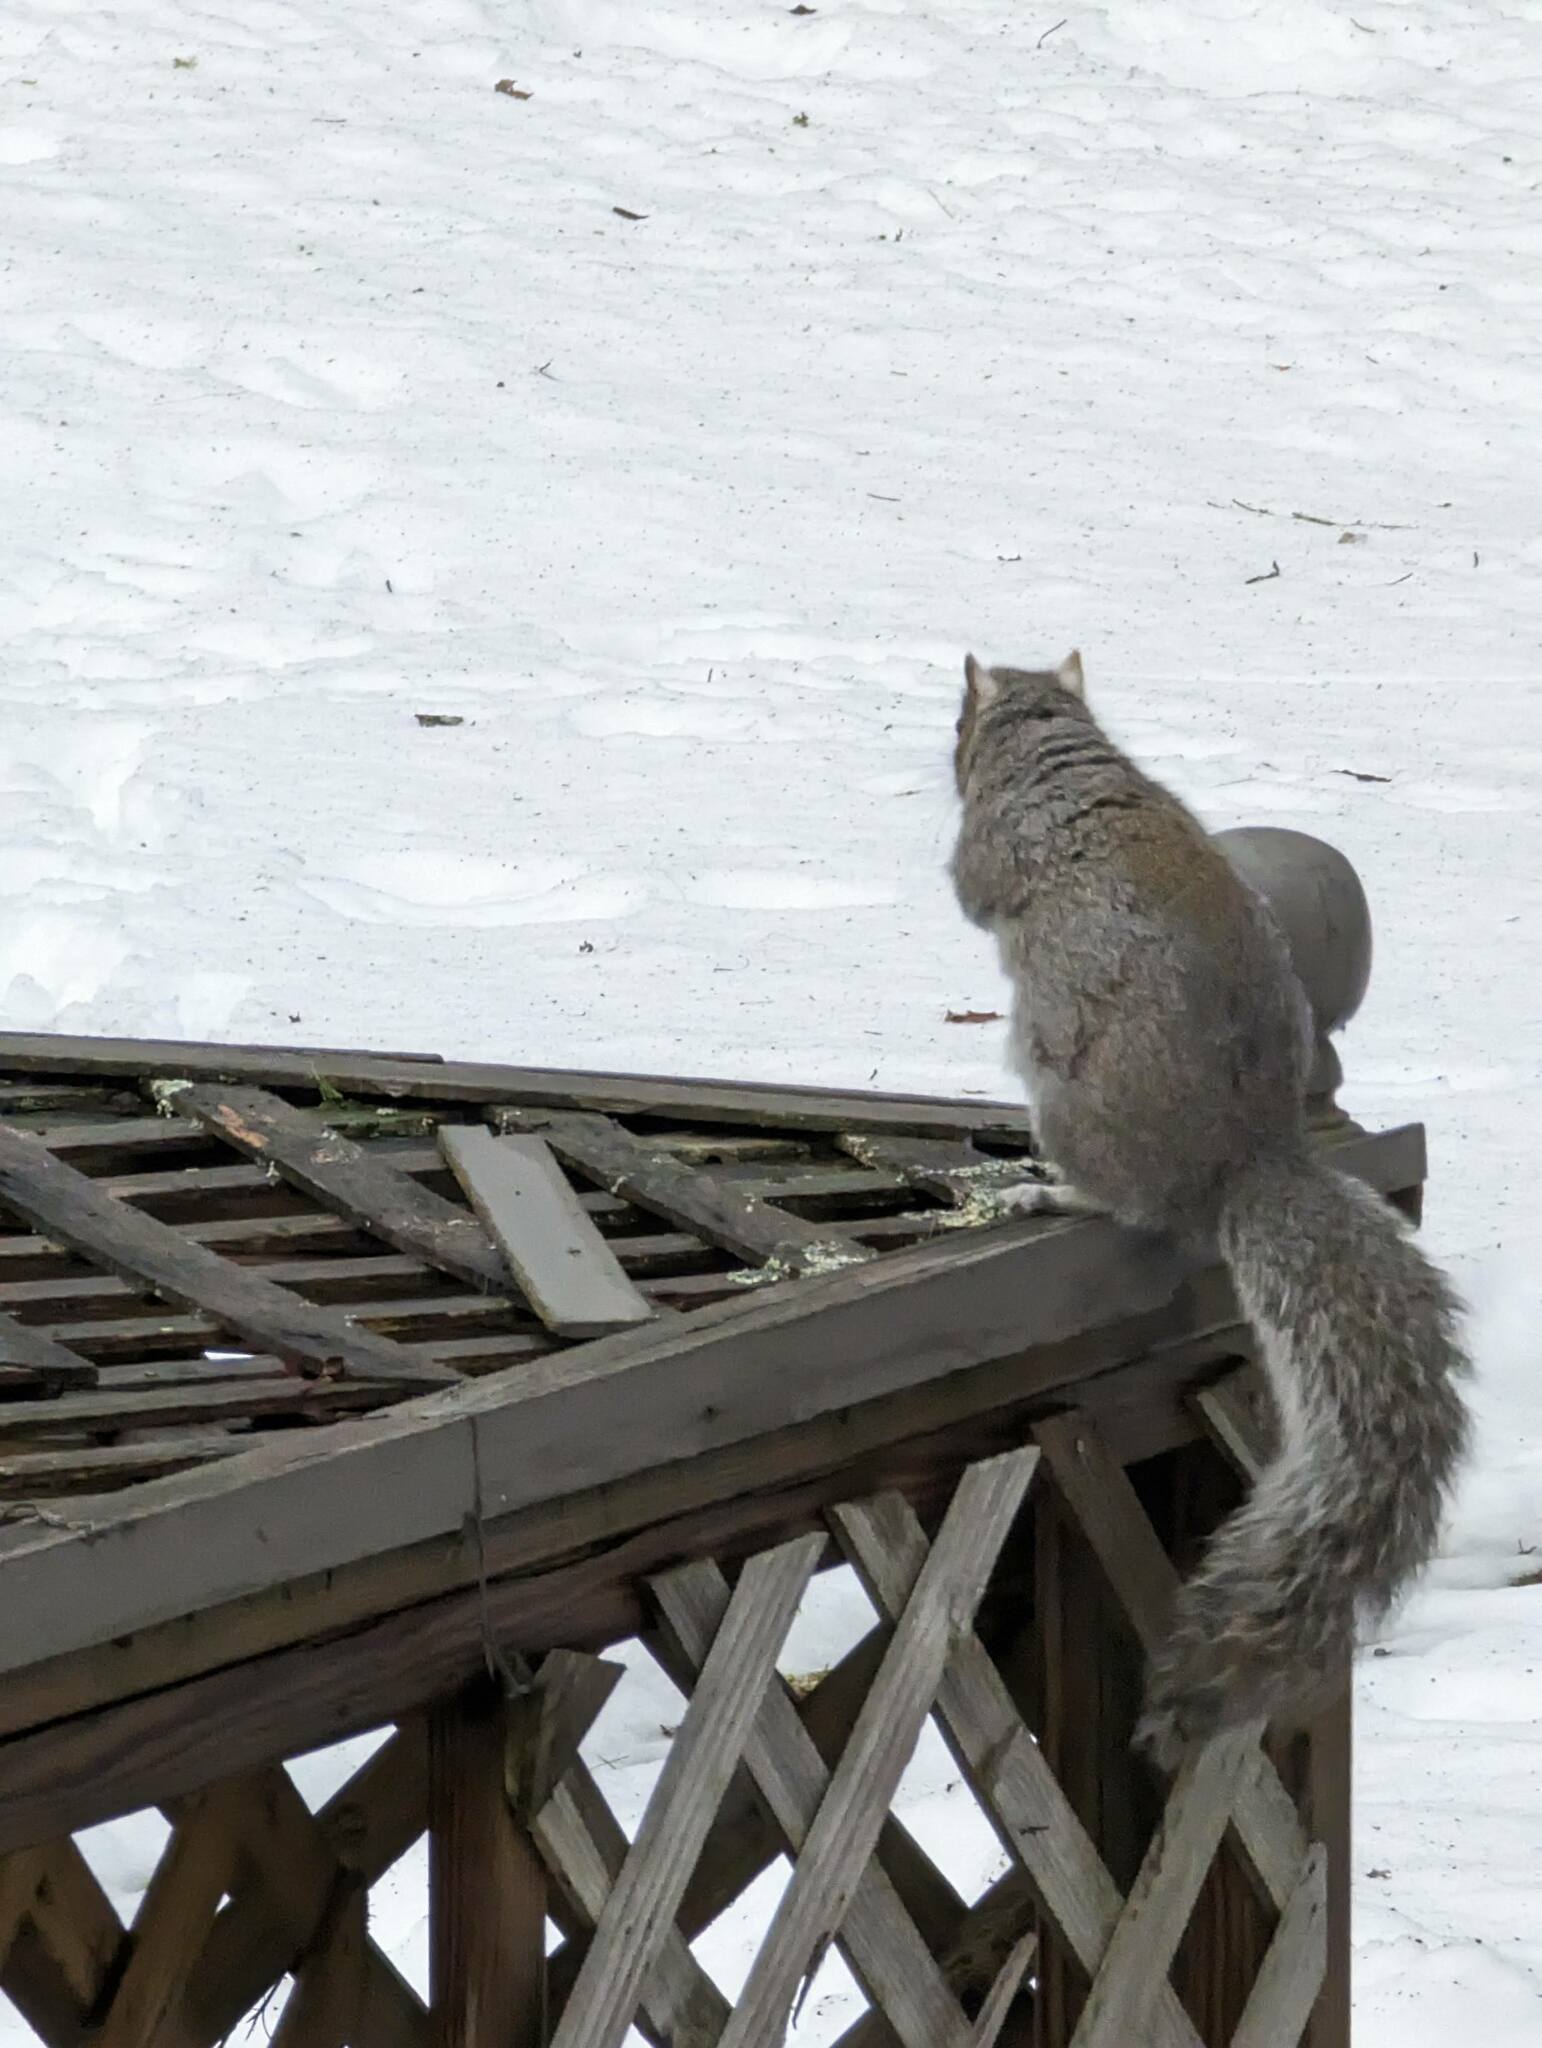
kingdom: Animalia
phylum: Chordata
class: Mammalia
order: Rodentia
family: Sciuridae
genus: Sciurus
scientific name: Sciurus carolinensis
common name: Eastern gray squirrel
